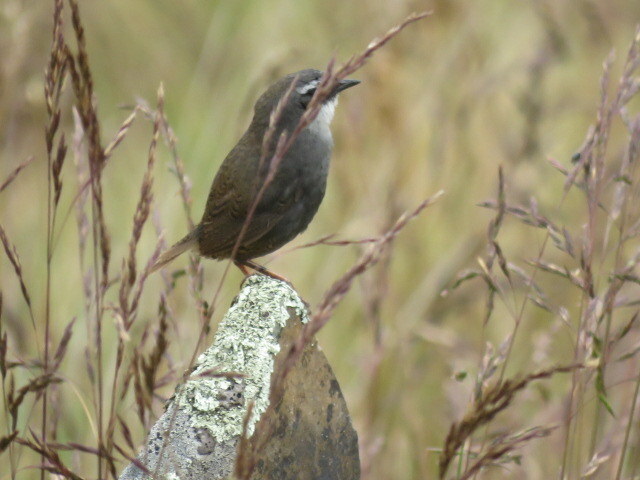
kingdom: Animalia
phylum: Chordata
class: Aves
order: Passeriformes
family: Rhinocryptidae
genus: Scytalopus
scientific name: Scytalopus zimmeri
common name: Zimmer's tapaculo
